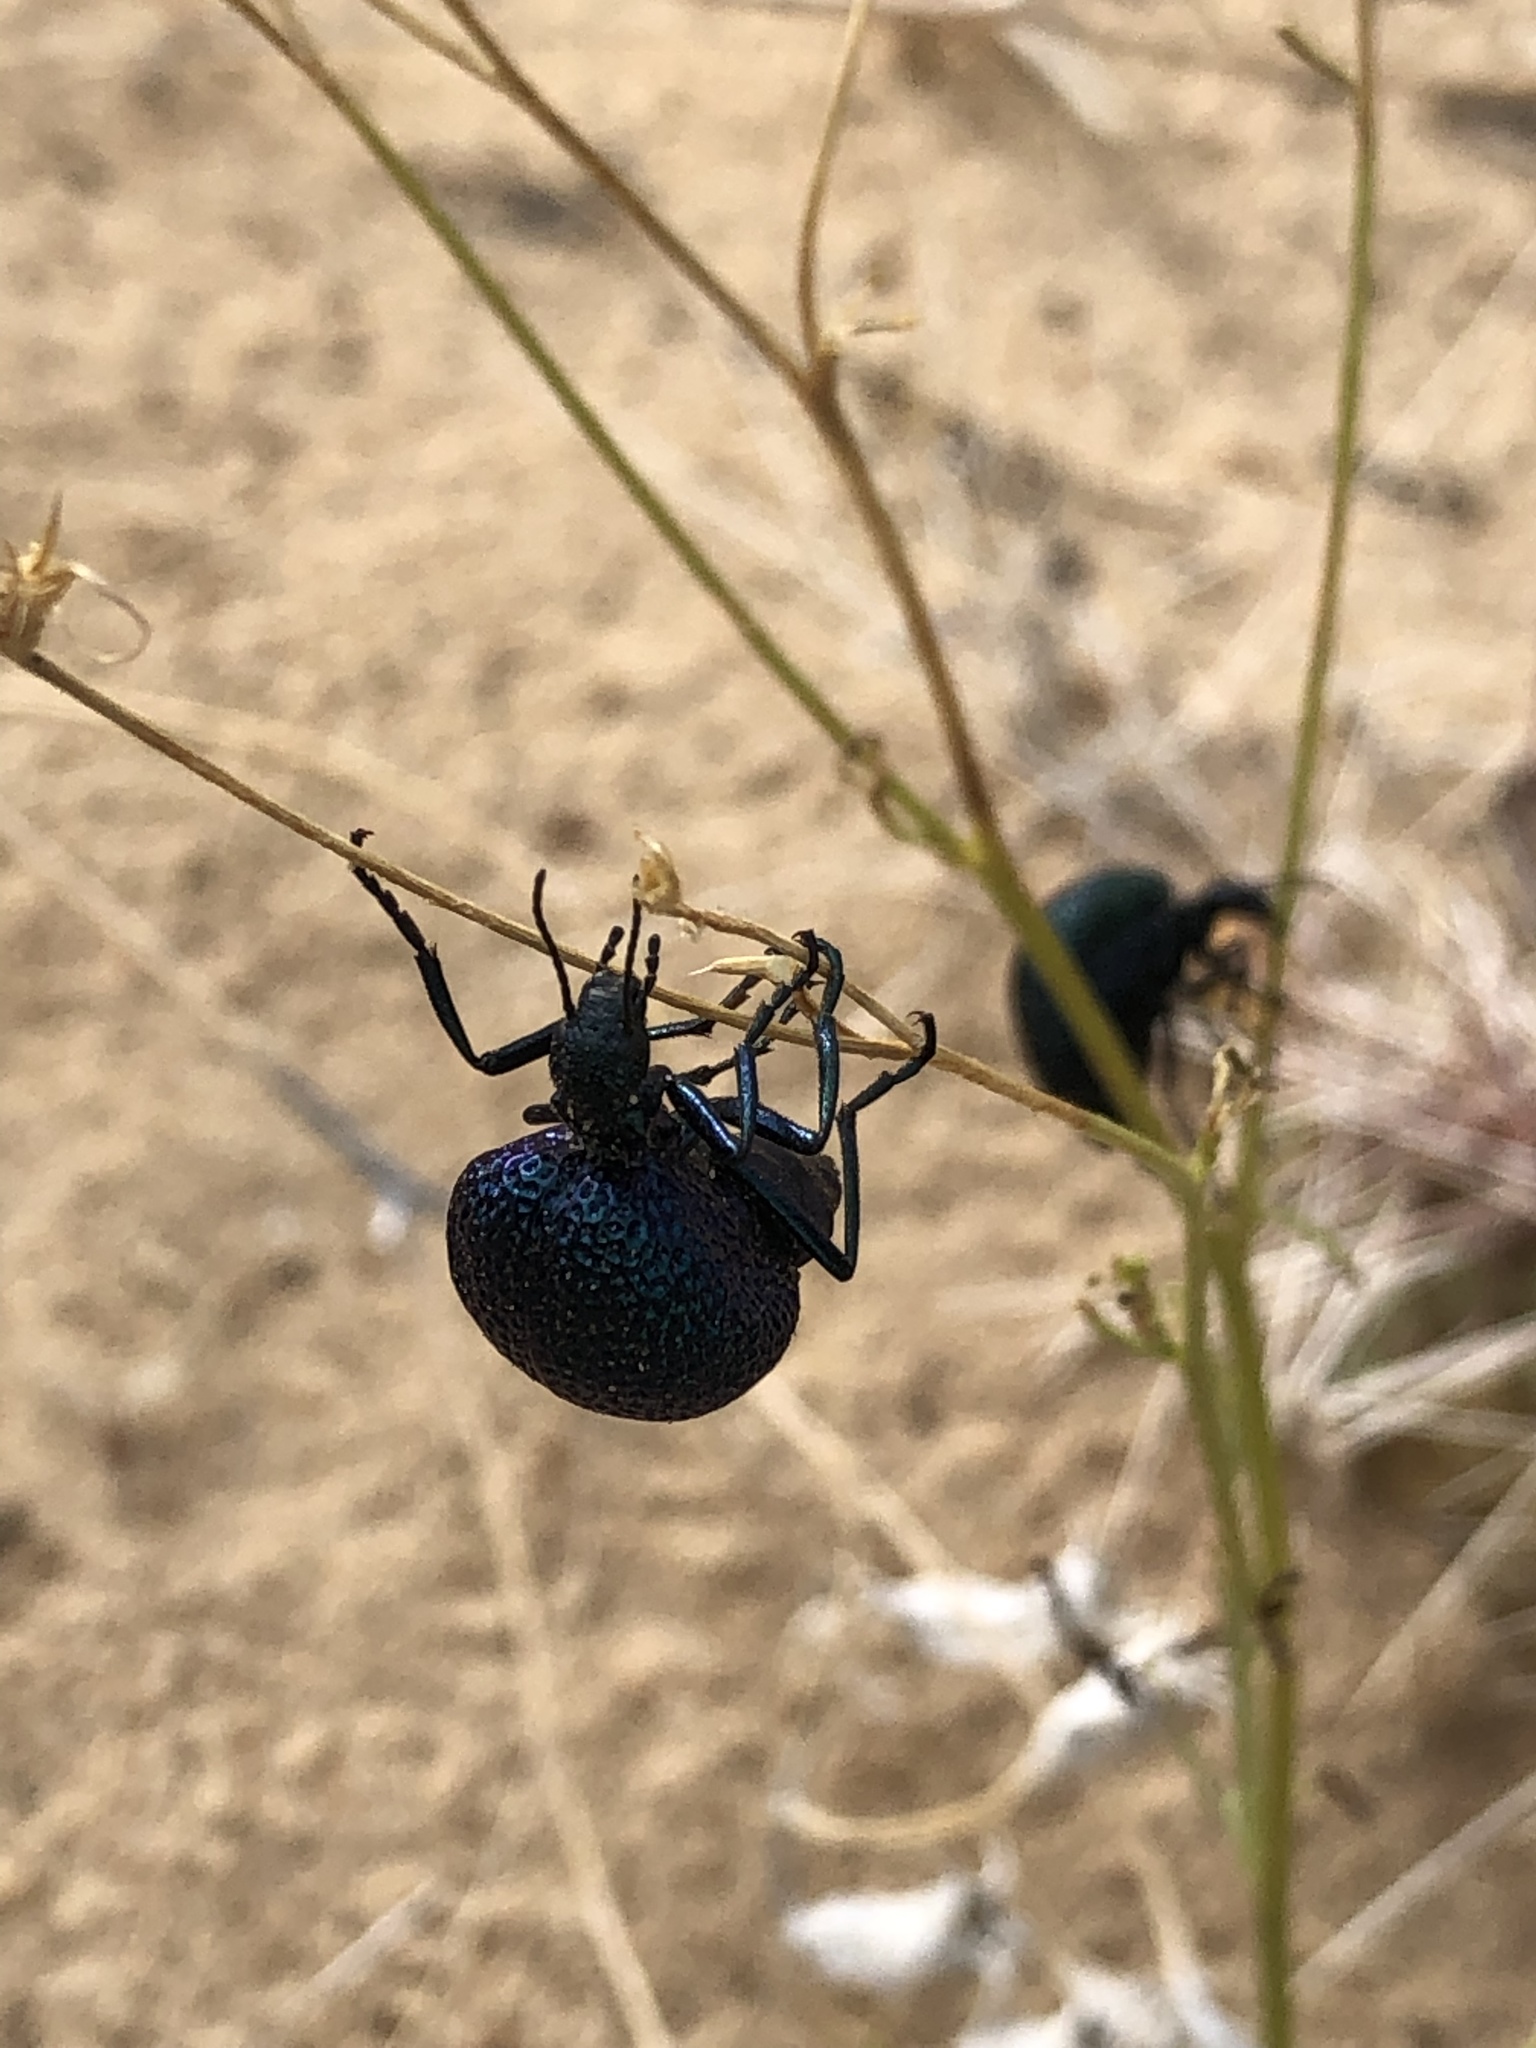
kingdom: Animalia
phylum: Arthropoda
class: Insecta
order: Coleoptera
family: Meloidae
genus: Cysteodemus
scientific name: Cysteodemus wislizeni
